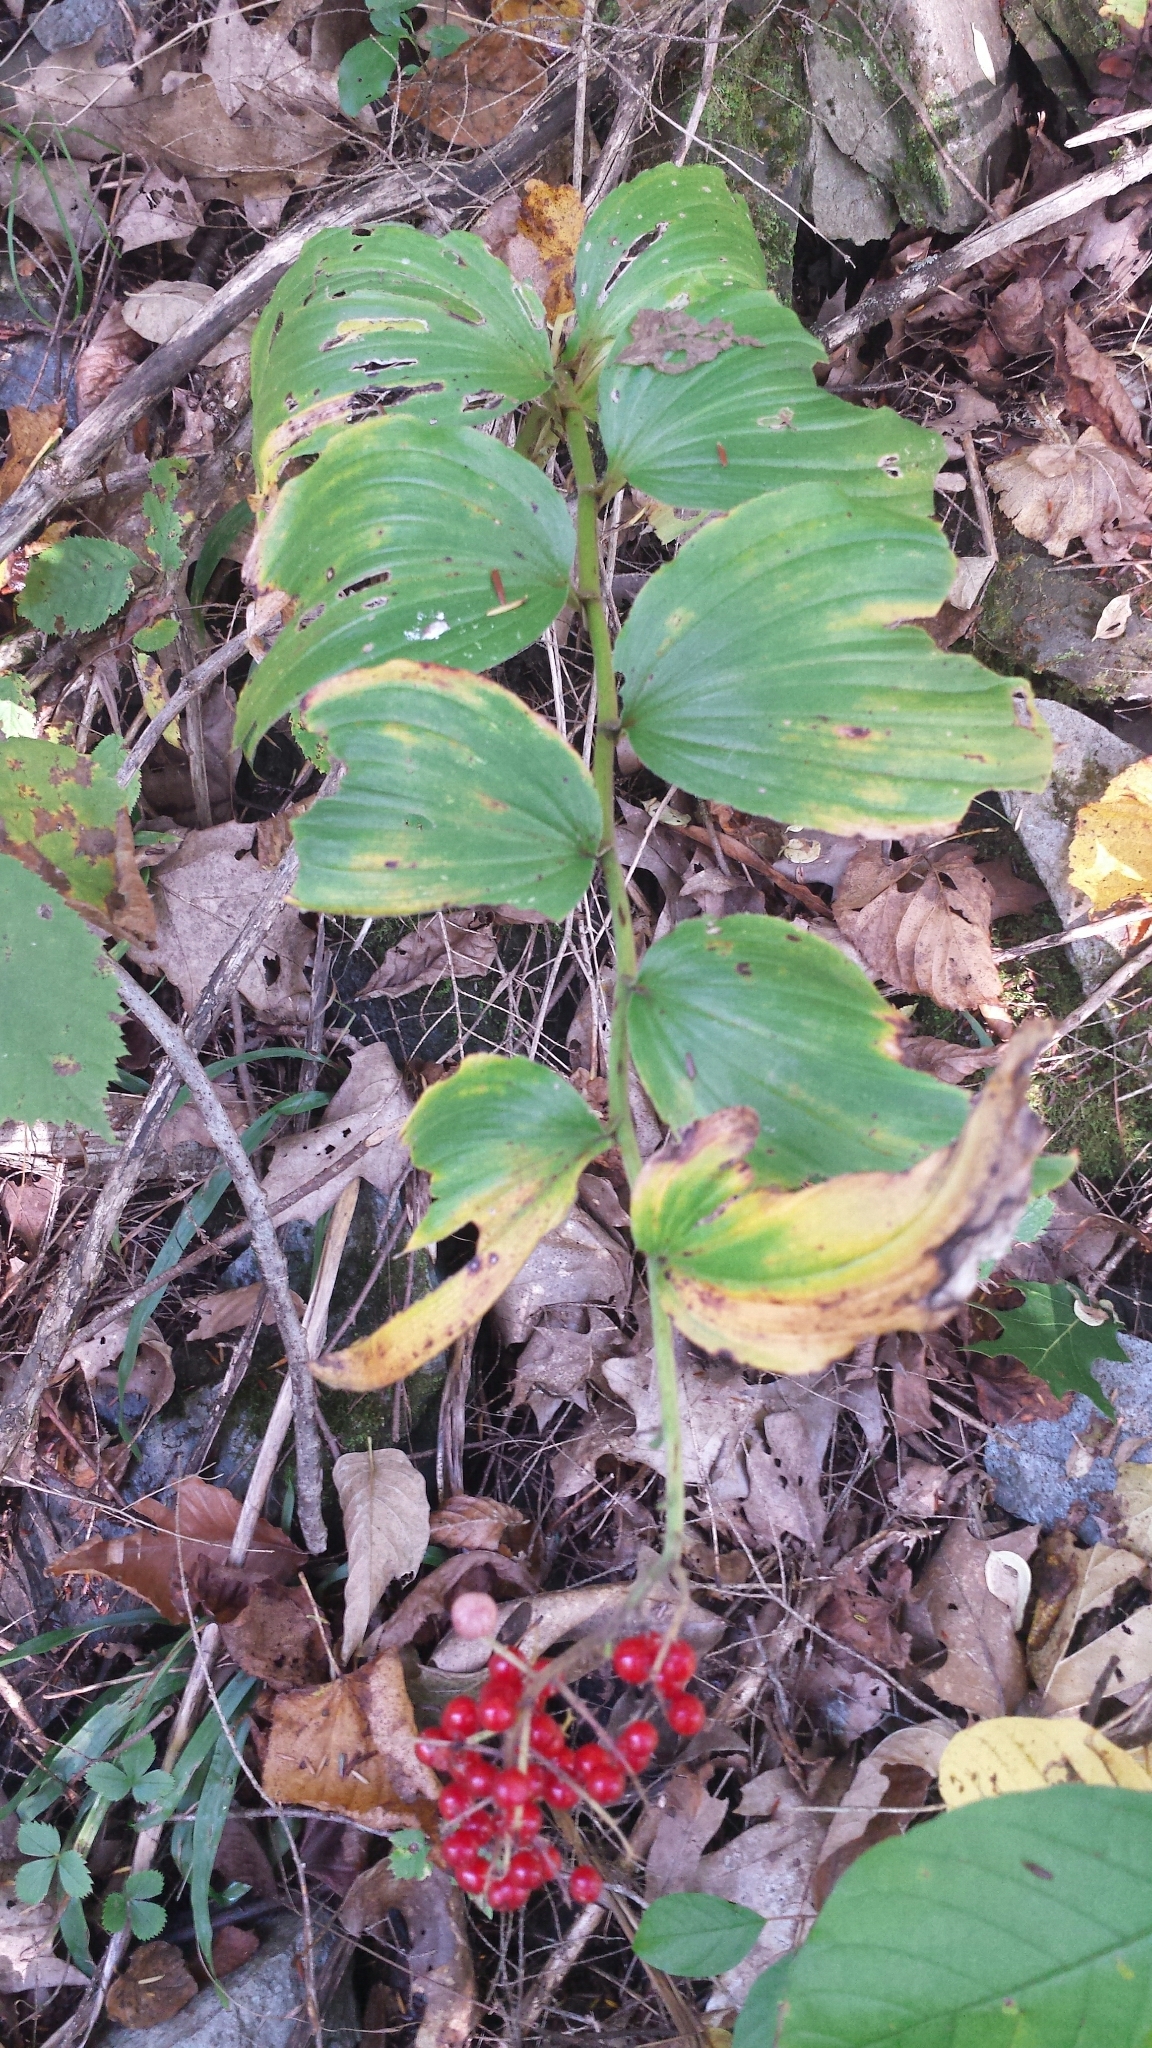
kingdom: Plantae
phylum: Tracheophyta
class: Liliopsida
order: Asparagales
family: Asparagaceae
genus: Maianthemum
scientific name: Maianthemum racemosum
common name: False spikenard
